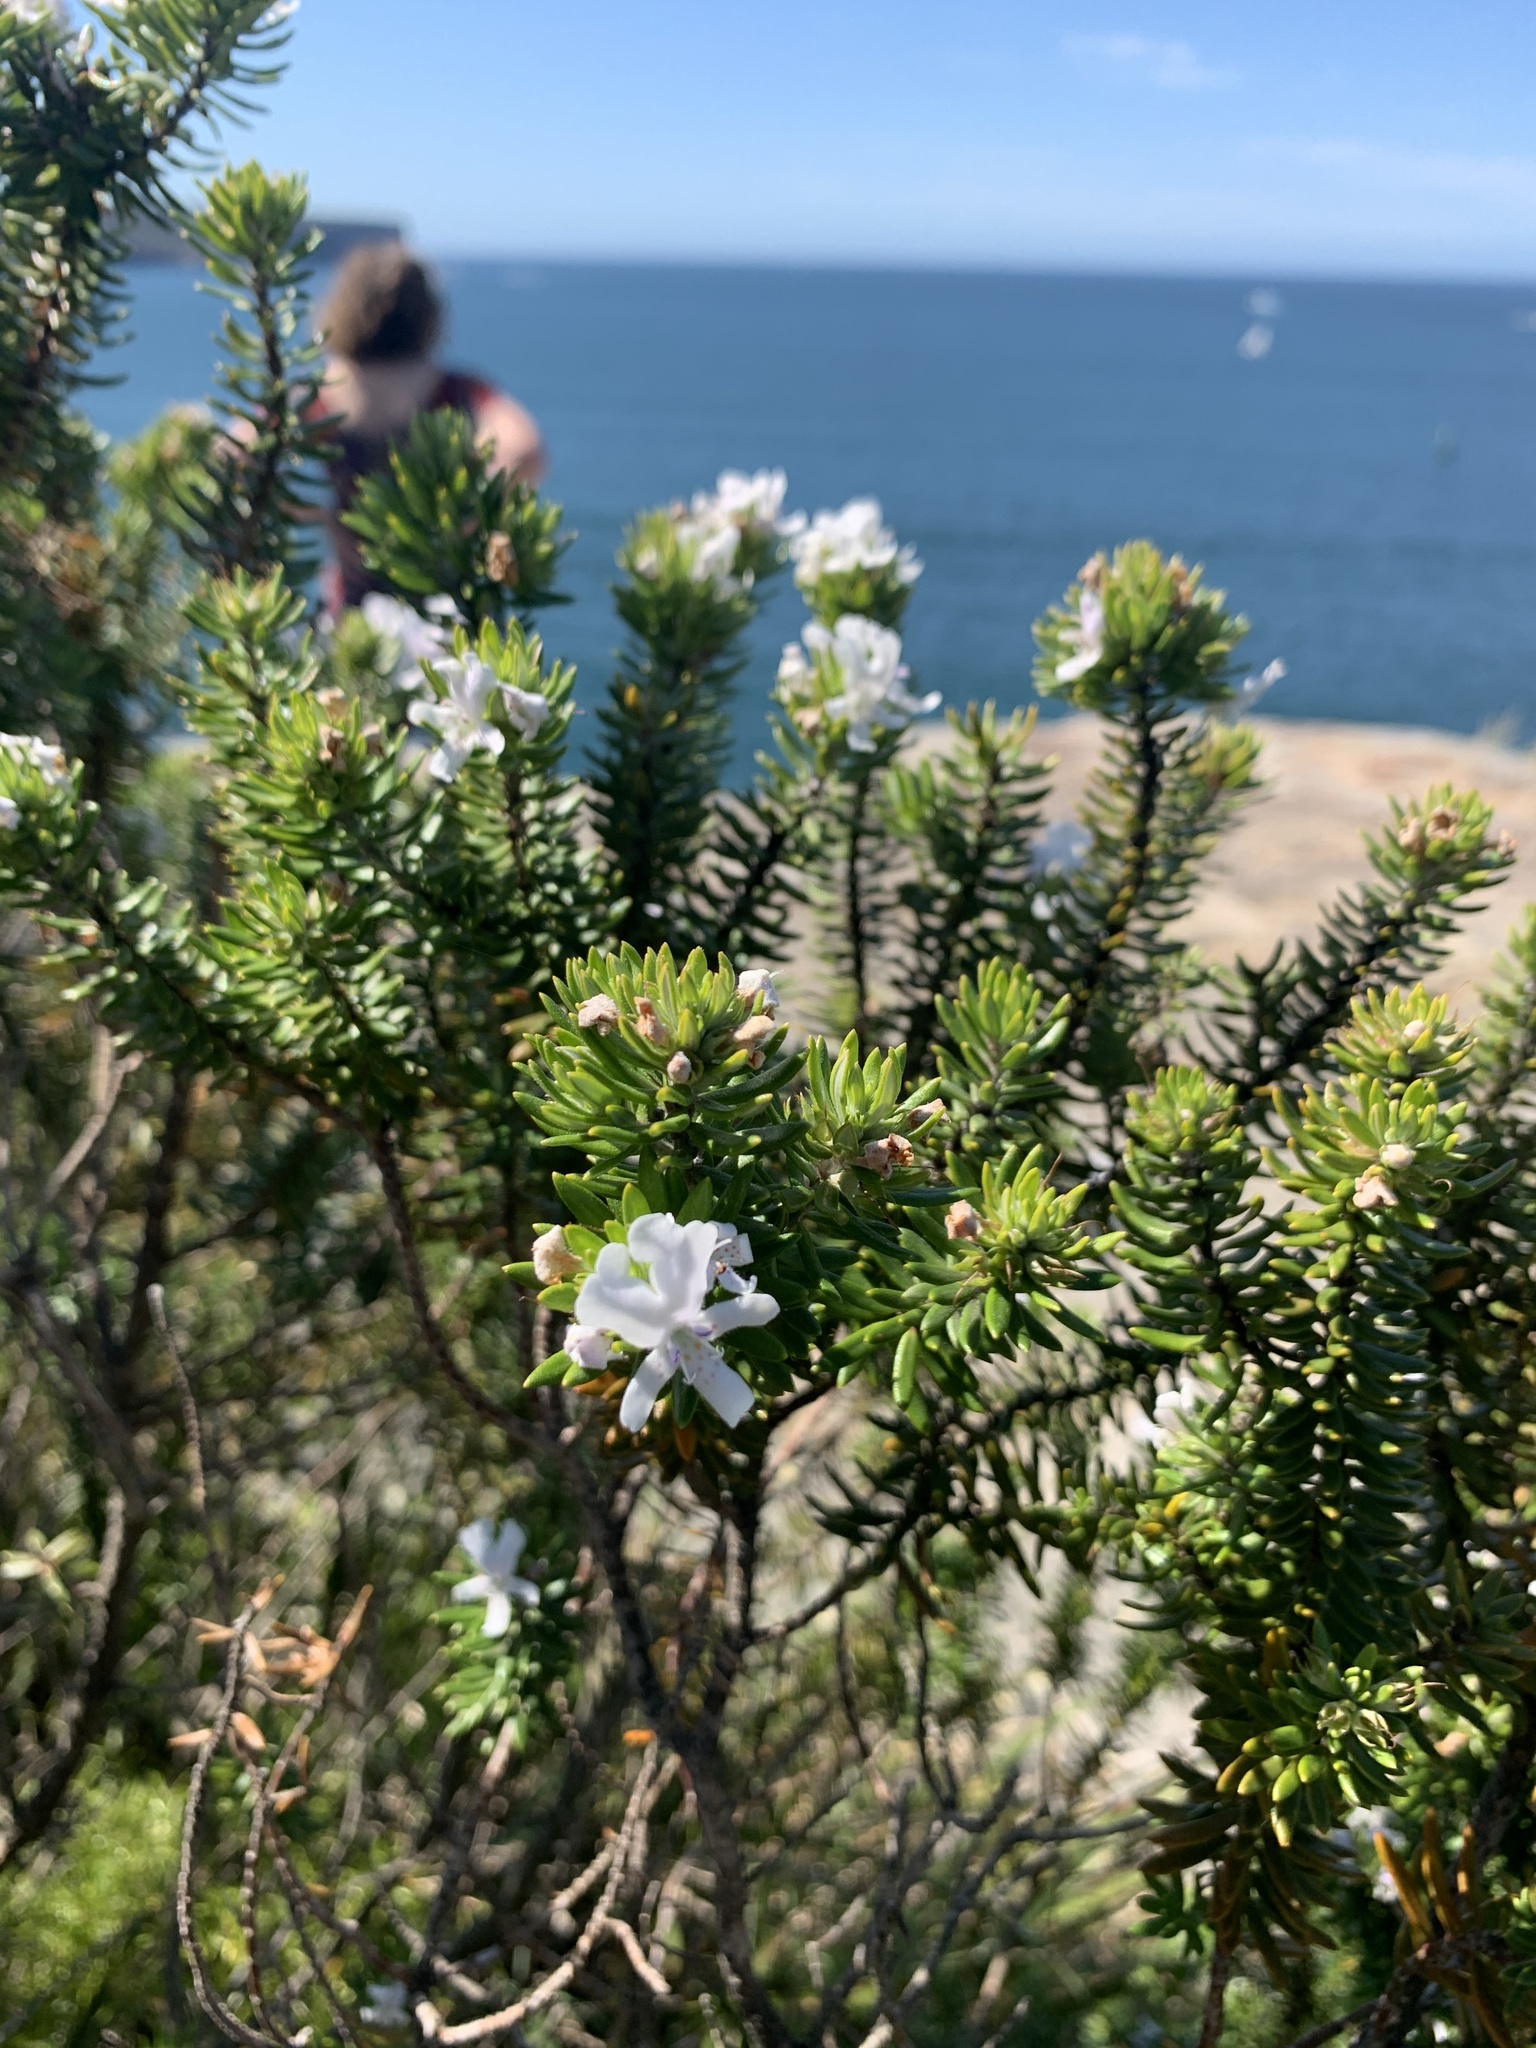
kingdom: Plantae
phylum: Tracheophyta
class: Magnoliopsida
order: Lamiales
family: Lamiaceae
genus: Westringia
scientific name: Westringia fruticosa
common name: Coastal-rosemary
